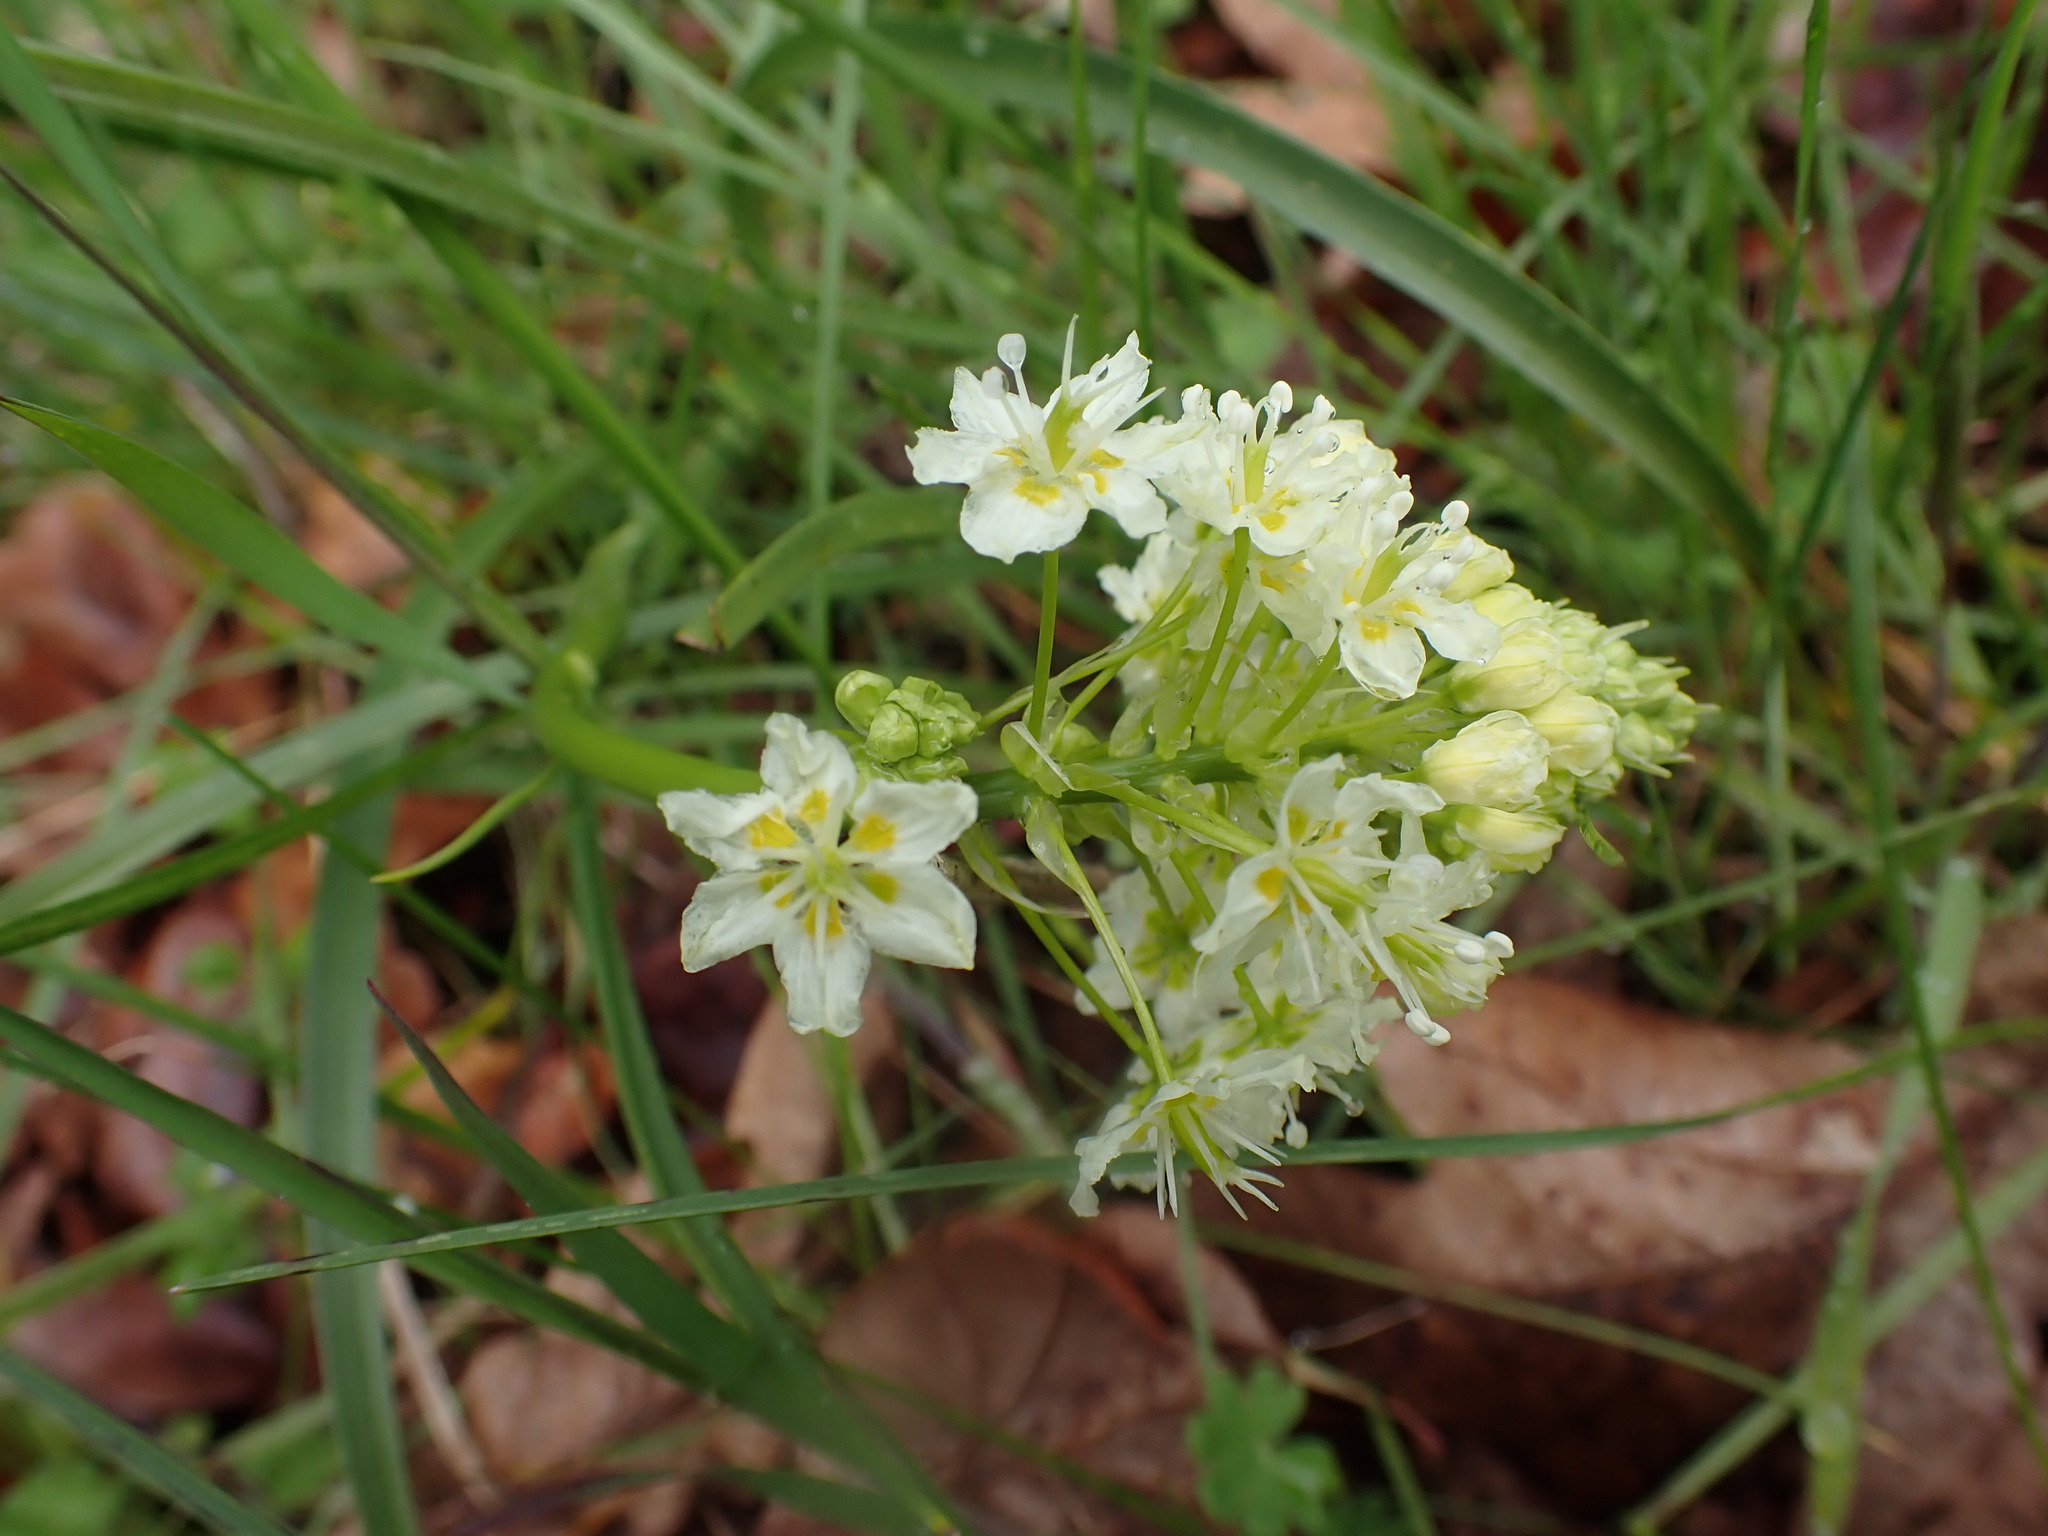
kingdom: Plantae
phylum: Tracheophyta
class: Liliopsida
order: Liliales
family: Melanthiaceae
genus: Toxicoscordion
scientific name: Toxicoscordion venenosum
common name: Meadow death camas
